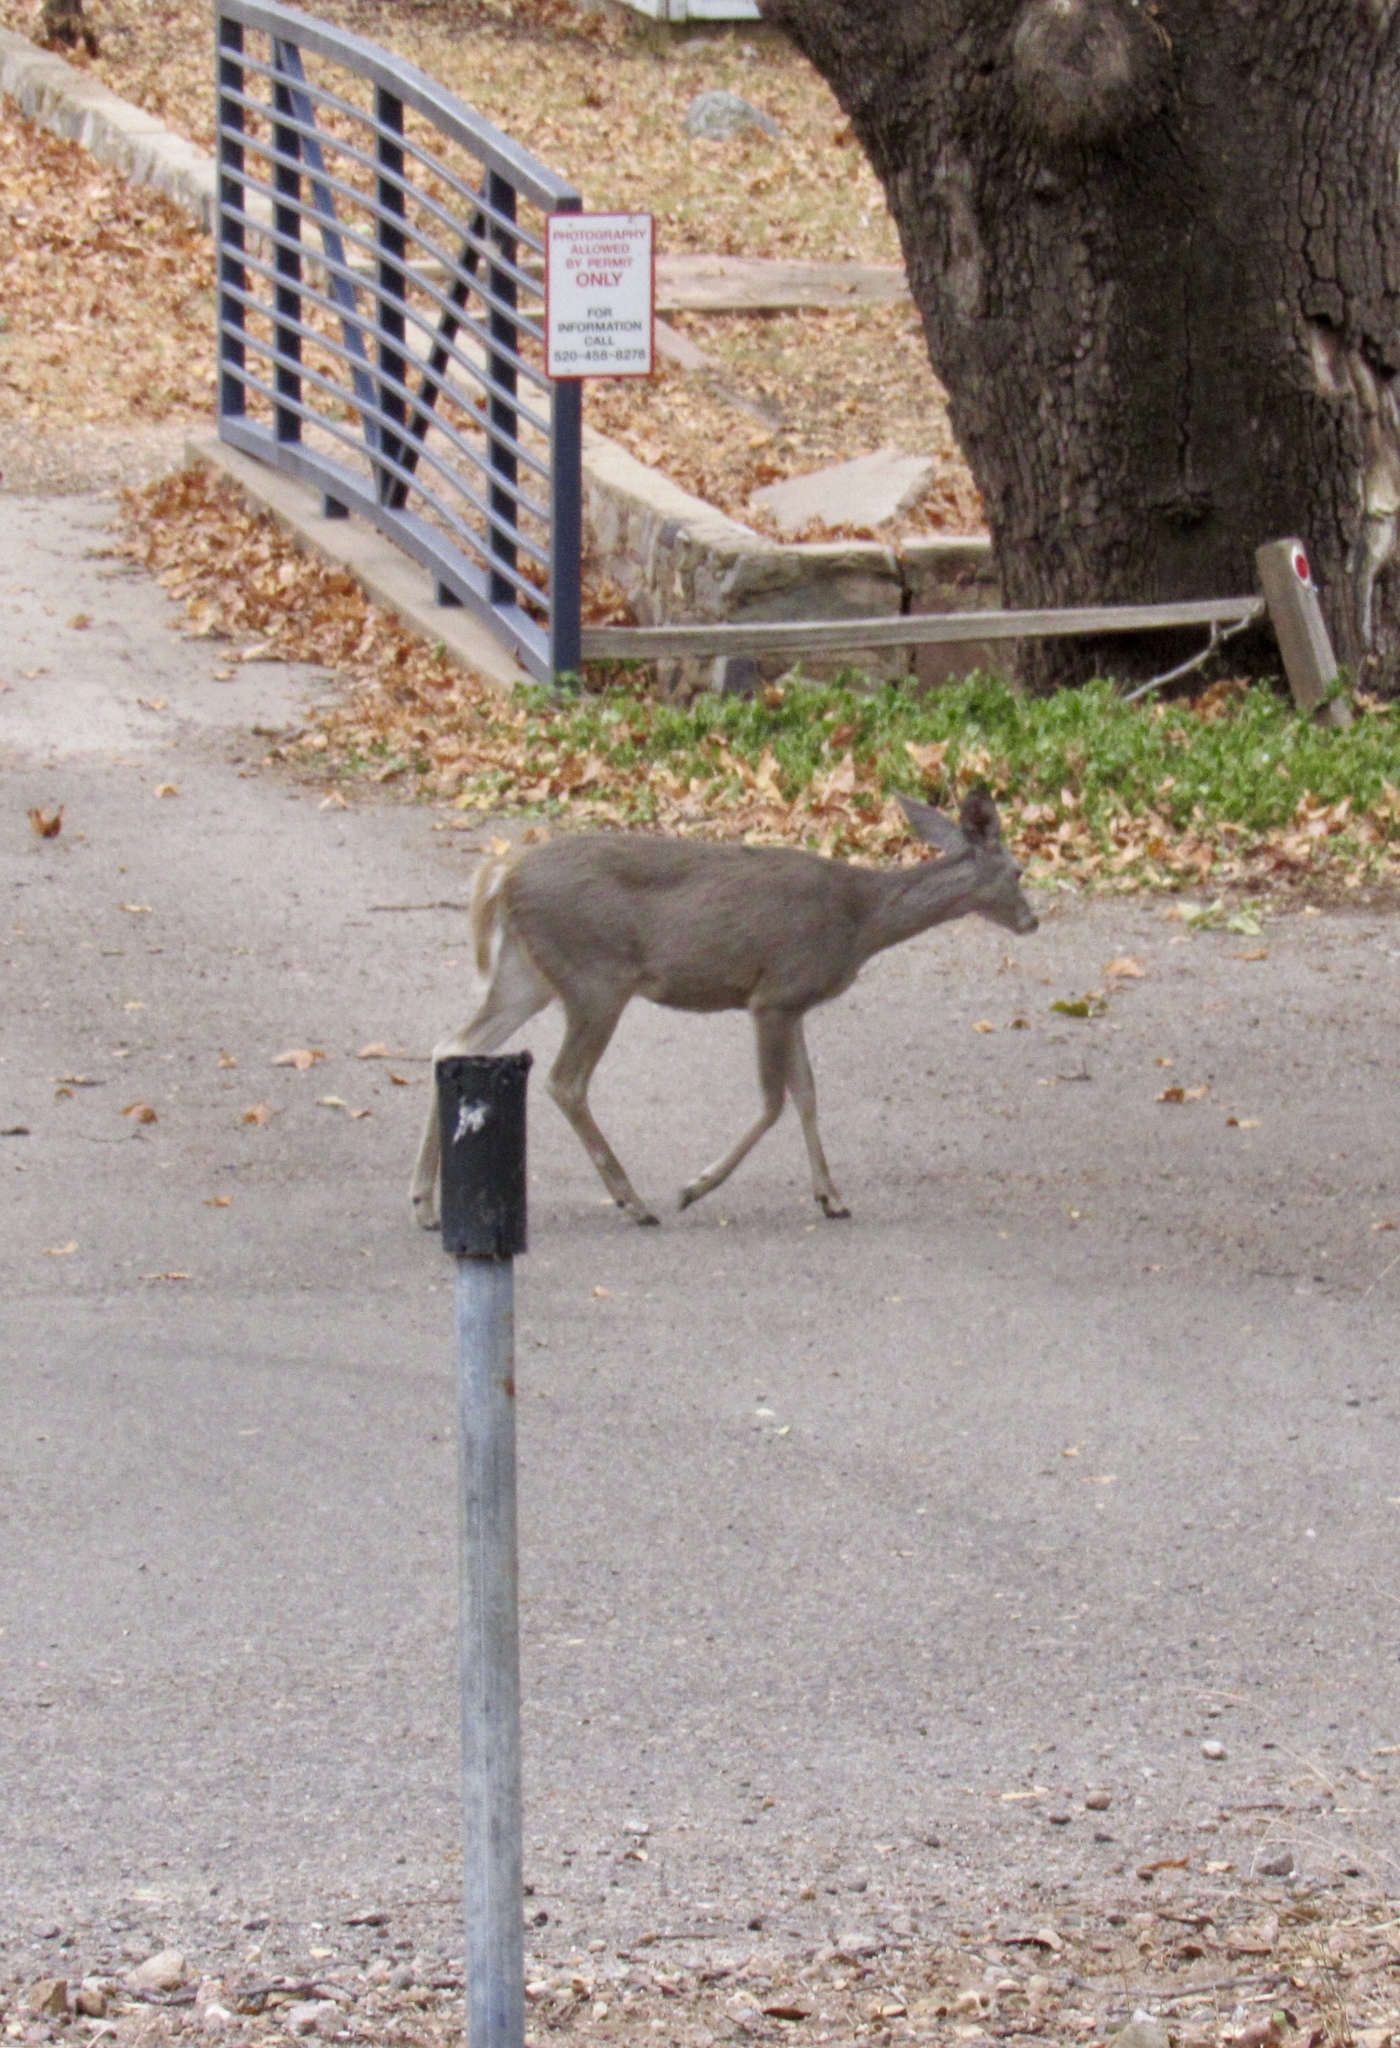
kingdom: Animalia
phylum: Chordata
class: Mammalia
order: Artiodactyla
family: Cervidae
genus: Odocoileus
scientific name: Odocoileus virginianus
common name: White-tailed deer
